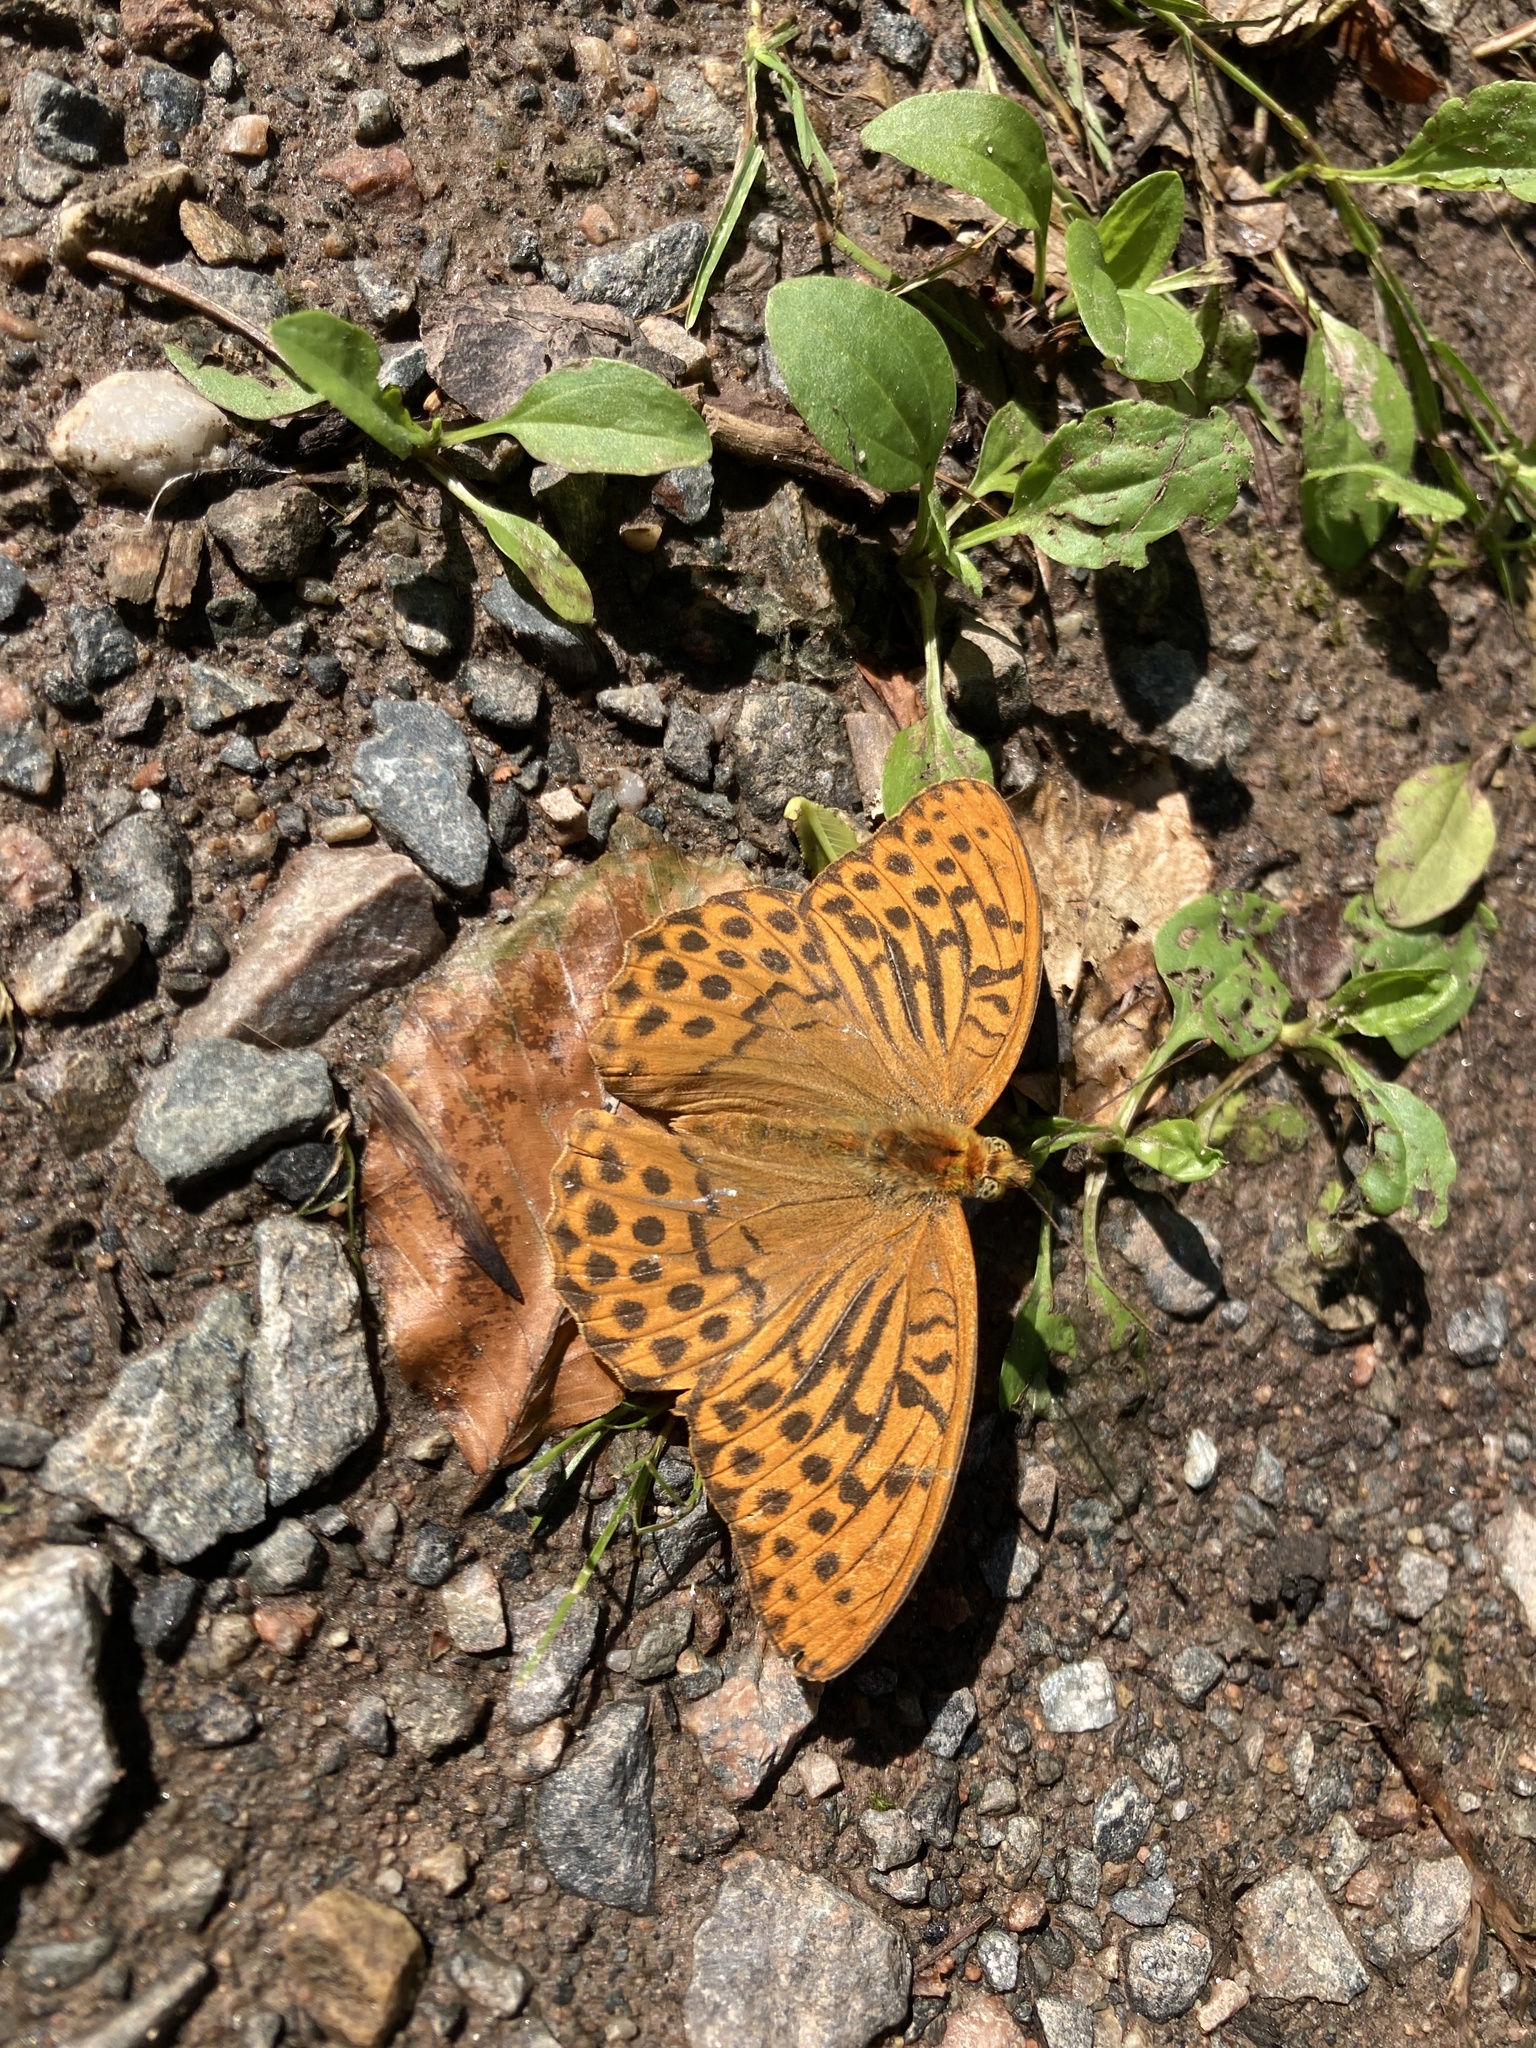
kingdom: Animalia
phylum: Arthropoda
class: Insecta
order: Lepidoptera
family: Nymphalidae
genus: Argynnis
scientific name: Argynnis paphia
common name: Silver-washed fritillary
